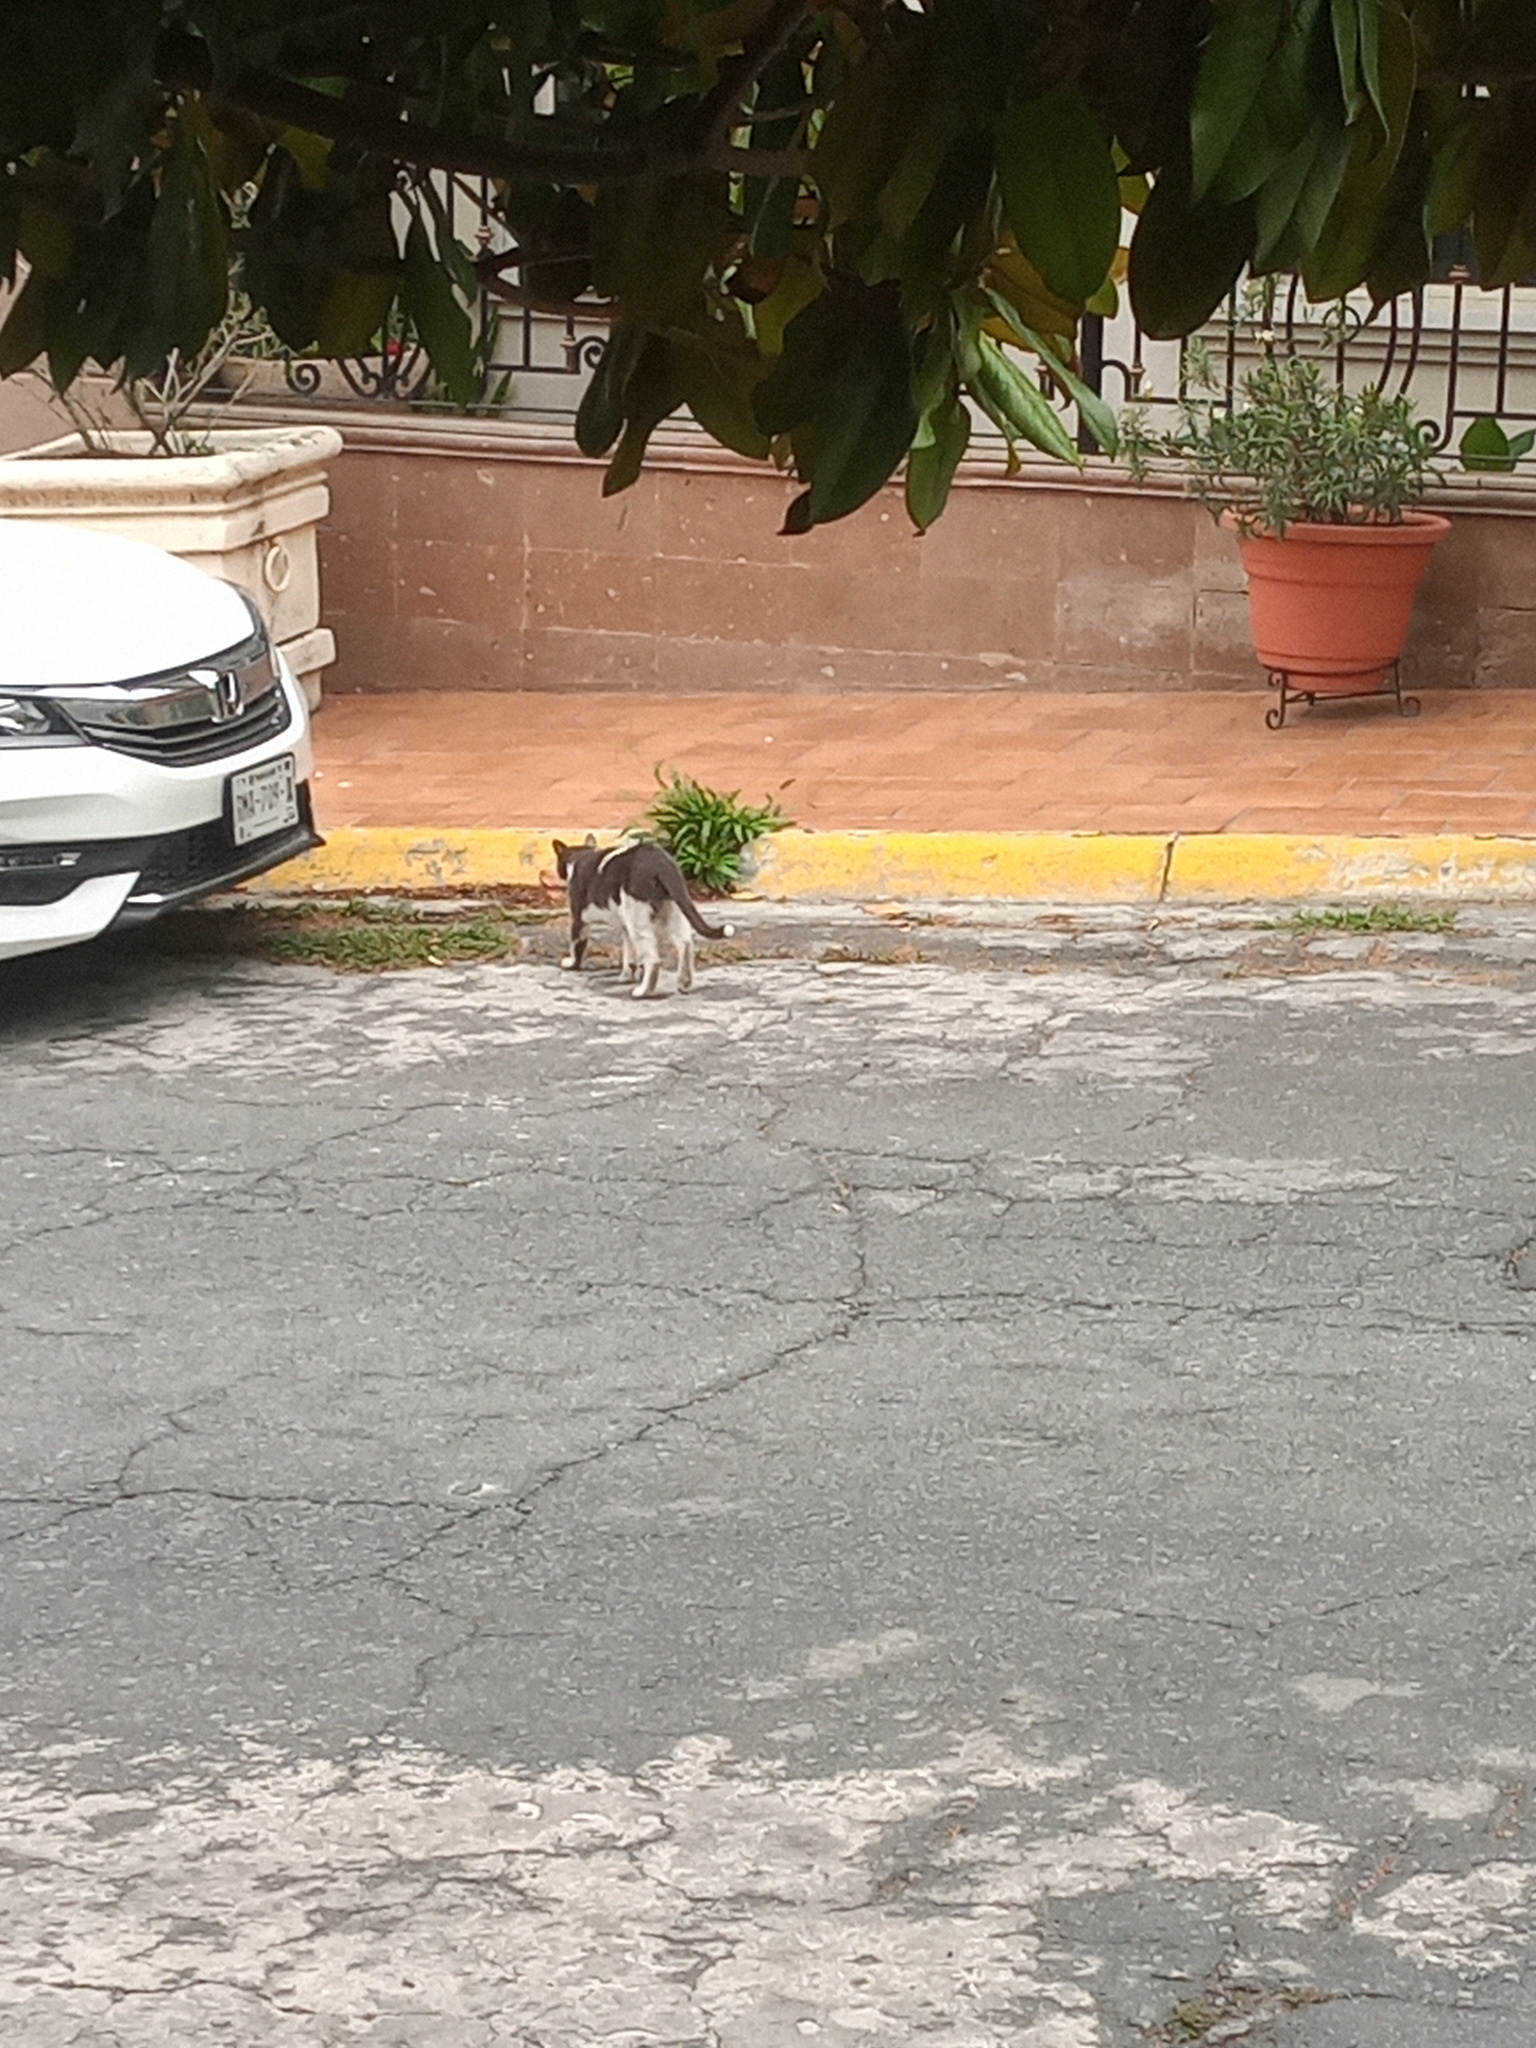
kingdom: Animalia
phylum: Chordata
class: Mammalia
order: Carnivora
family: Felidae
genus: Felis
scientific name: Felis catus
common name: Domestic cat
